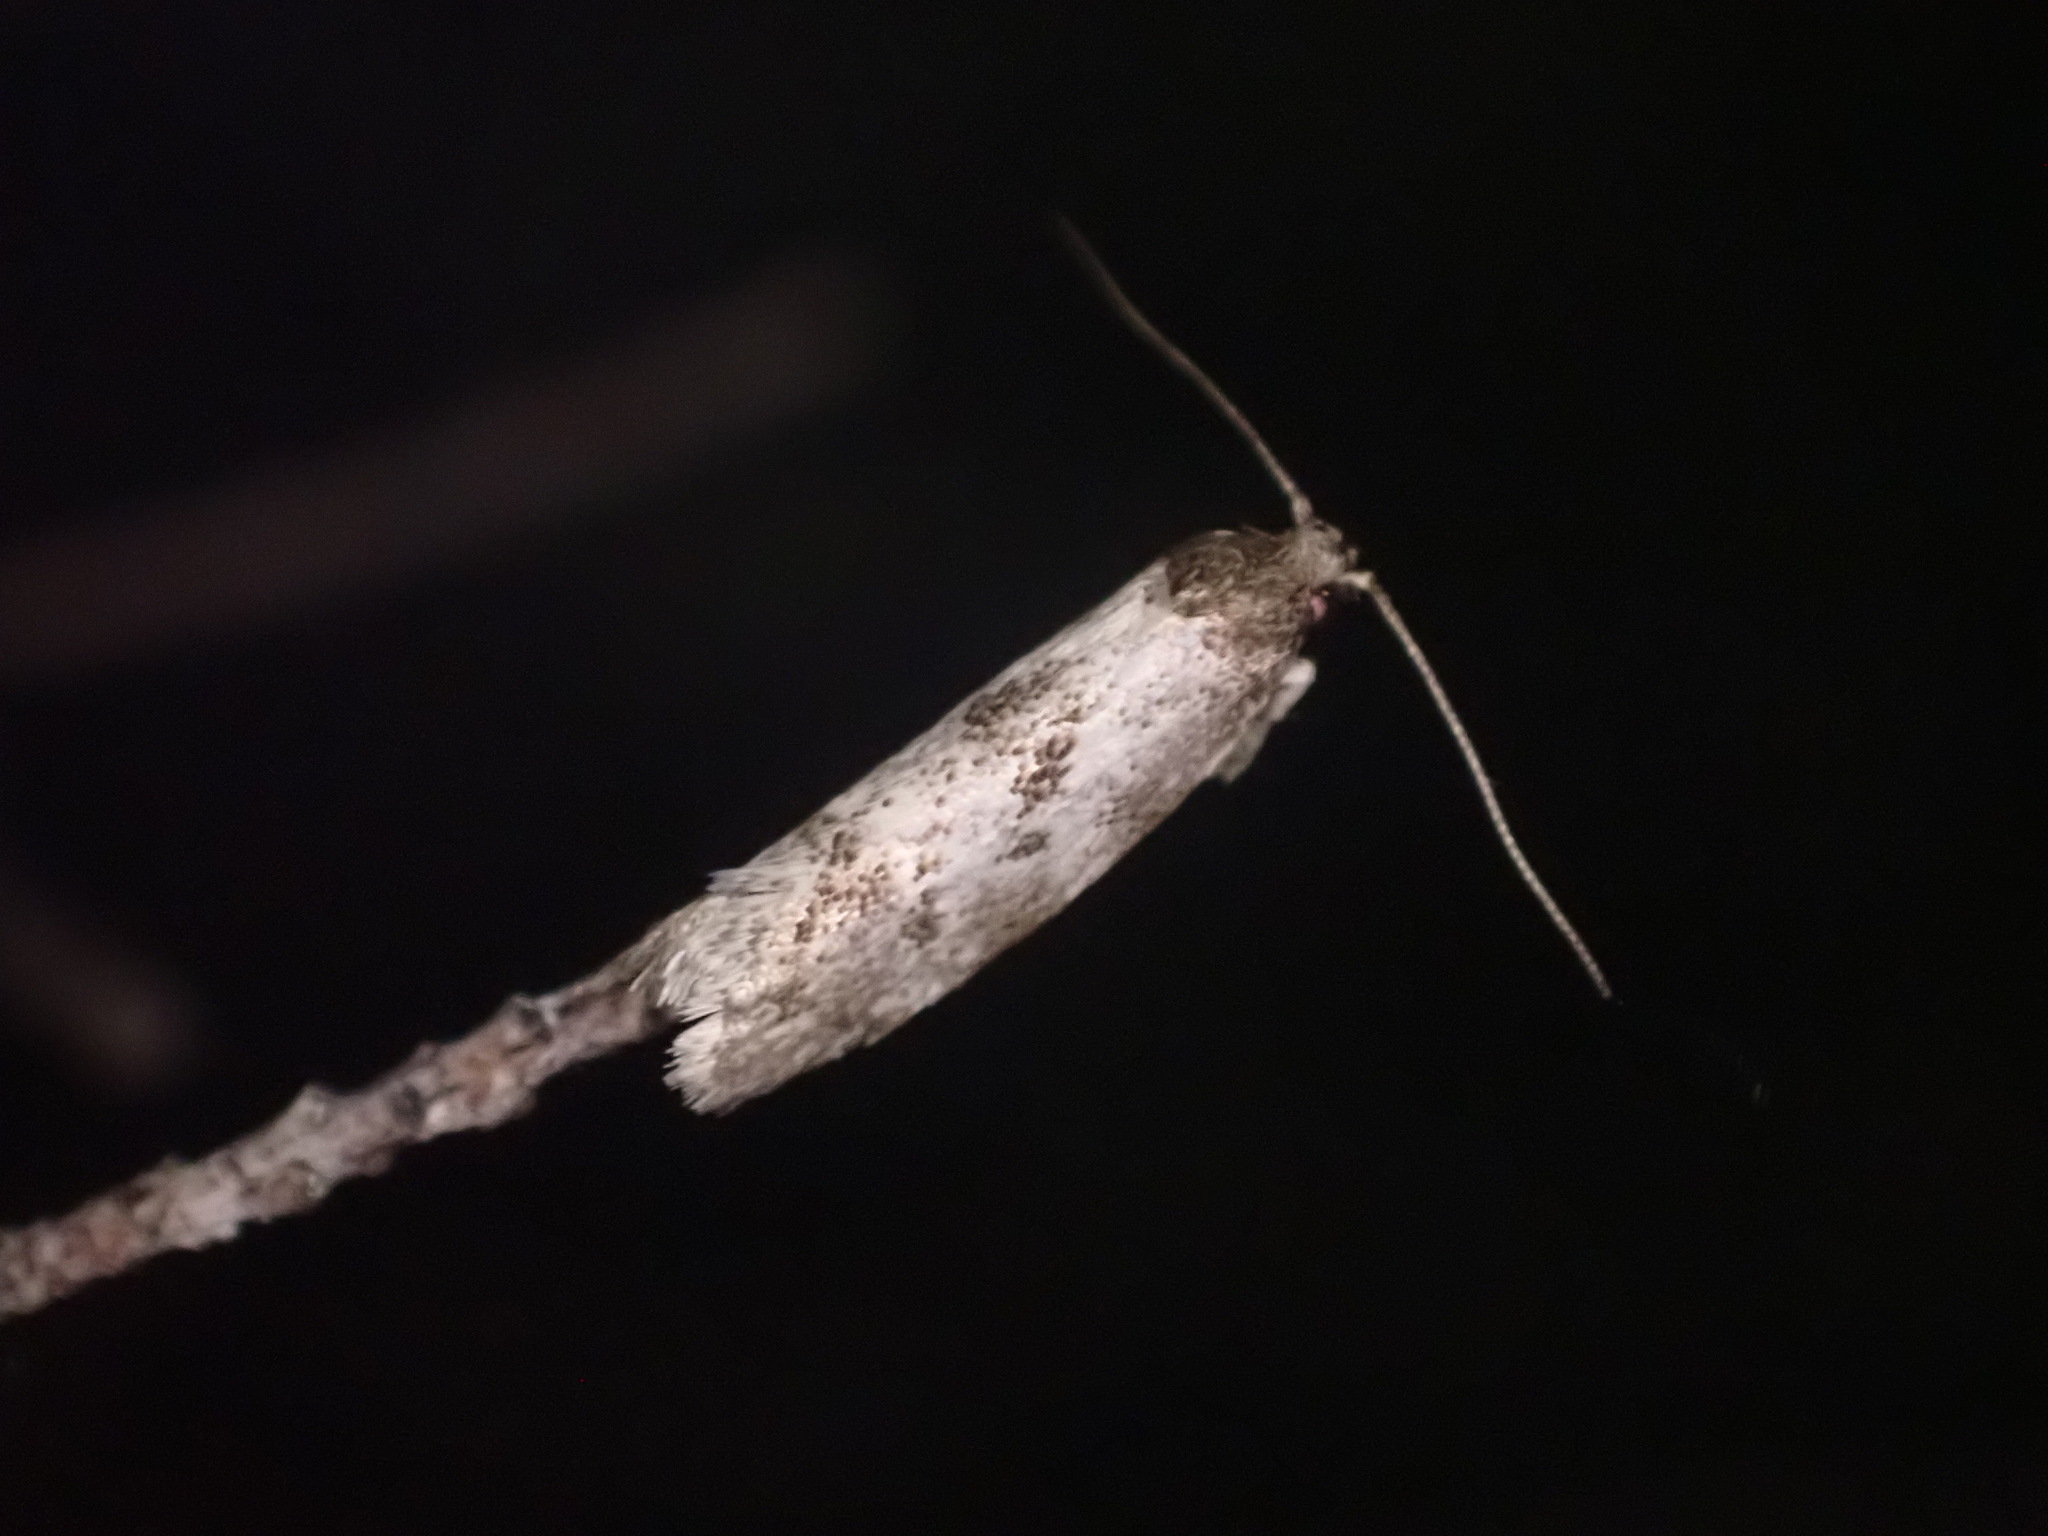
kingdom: Animalia
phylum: Arthropoda
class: Insecta
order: Lepidoptera
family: Oecophoridae
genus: Tingena
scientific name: Tingena clarkei
